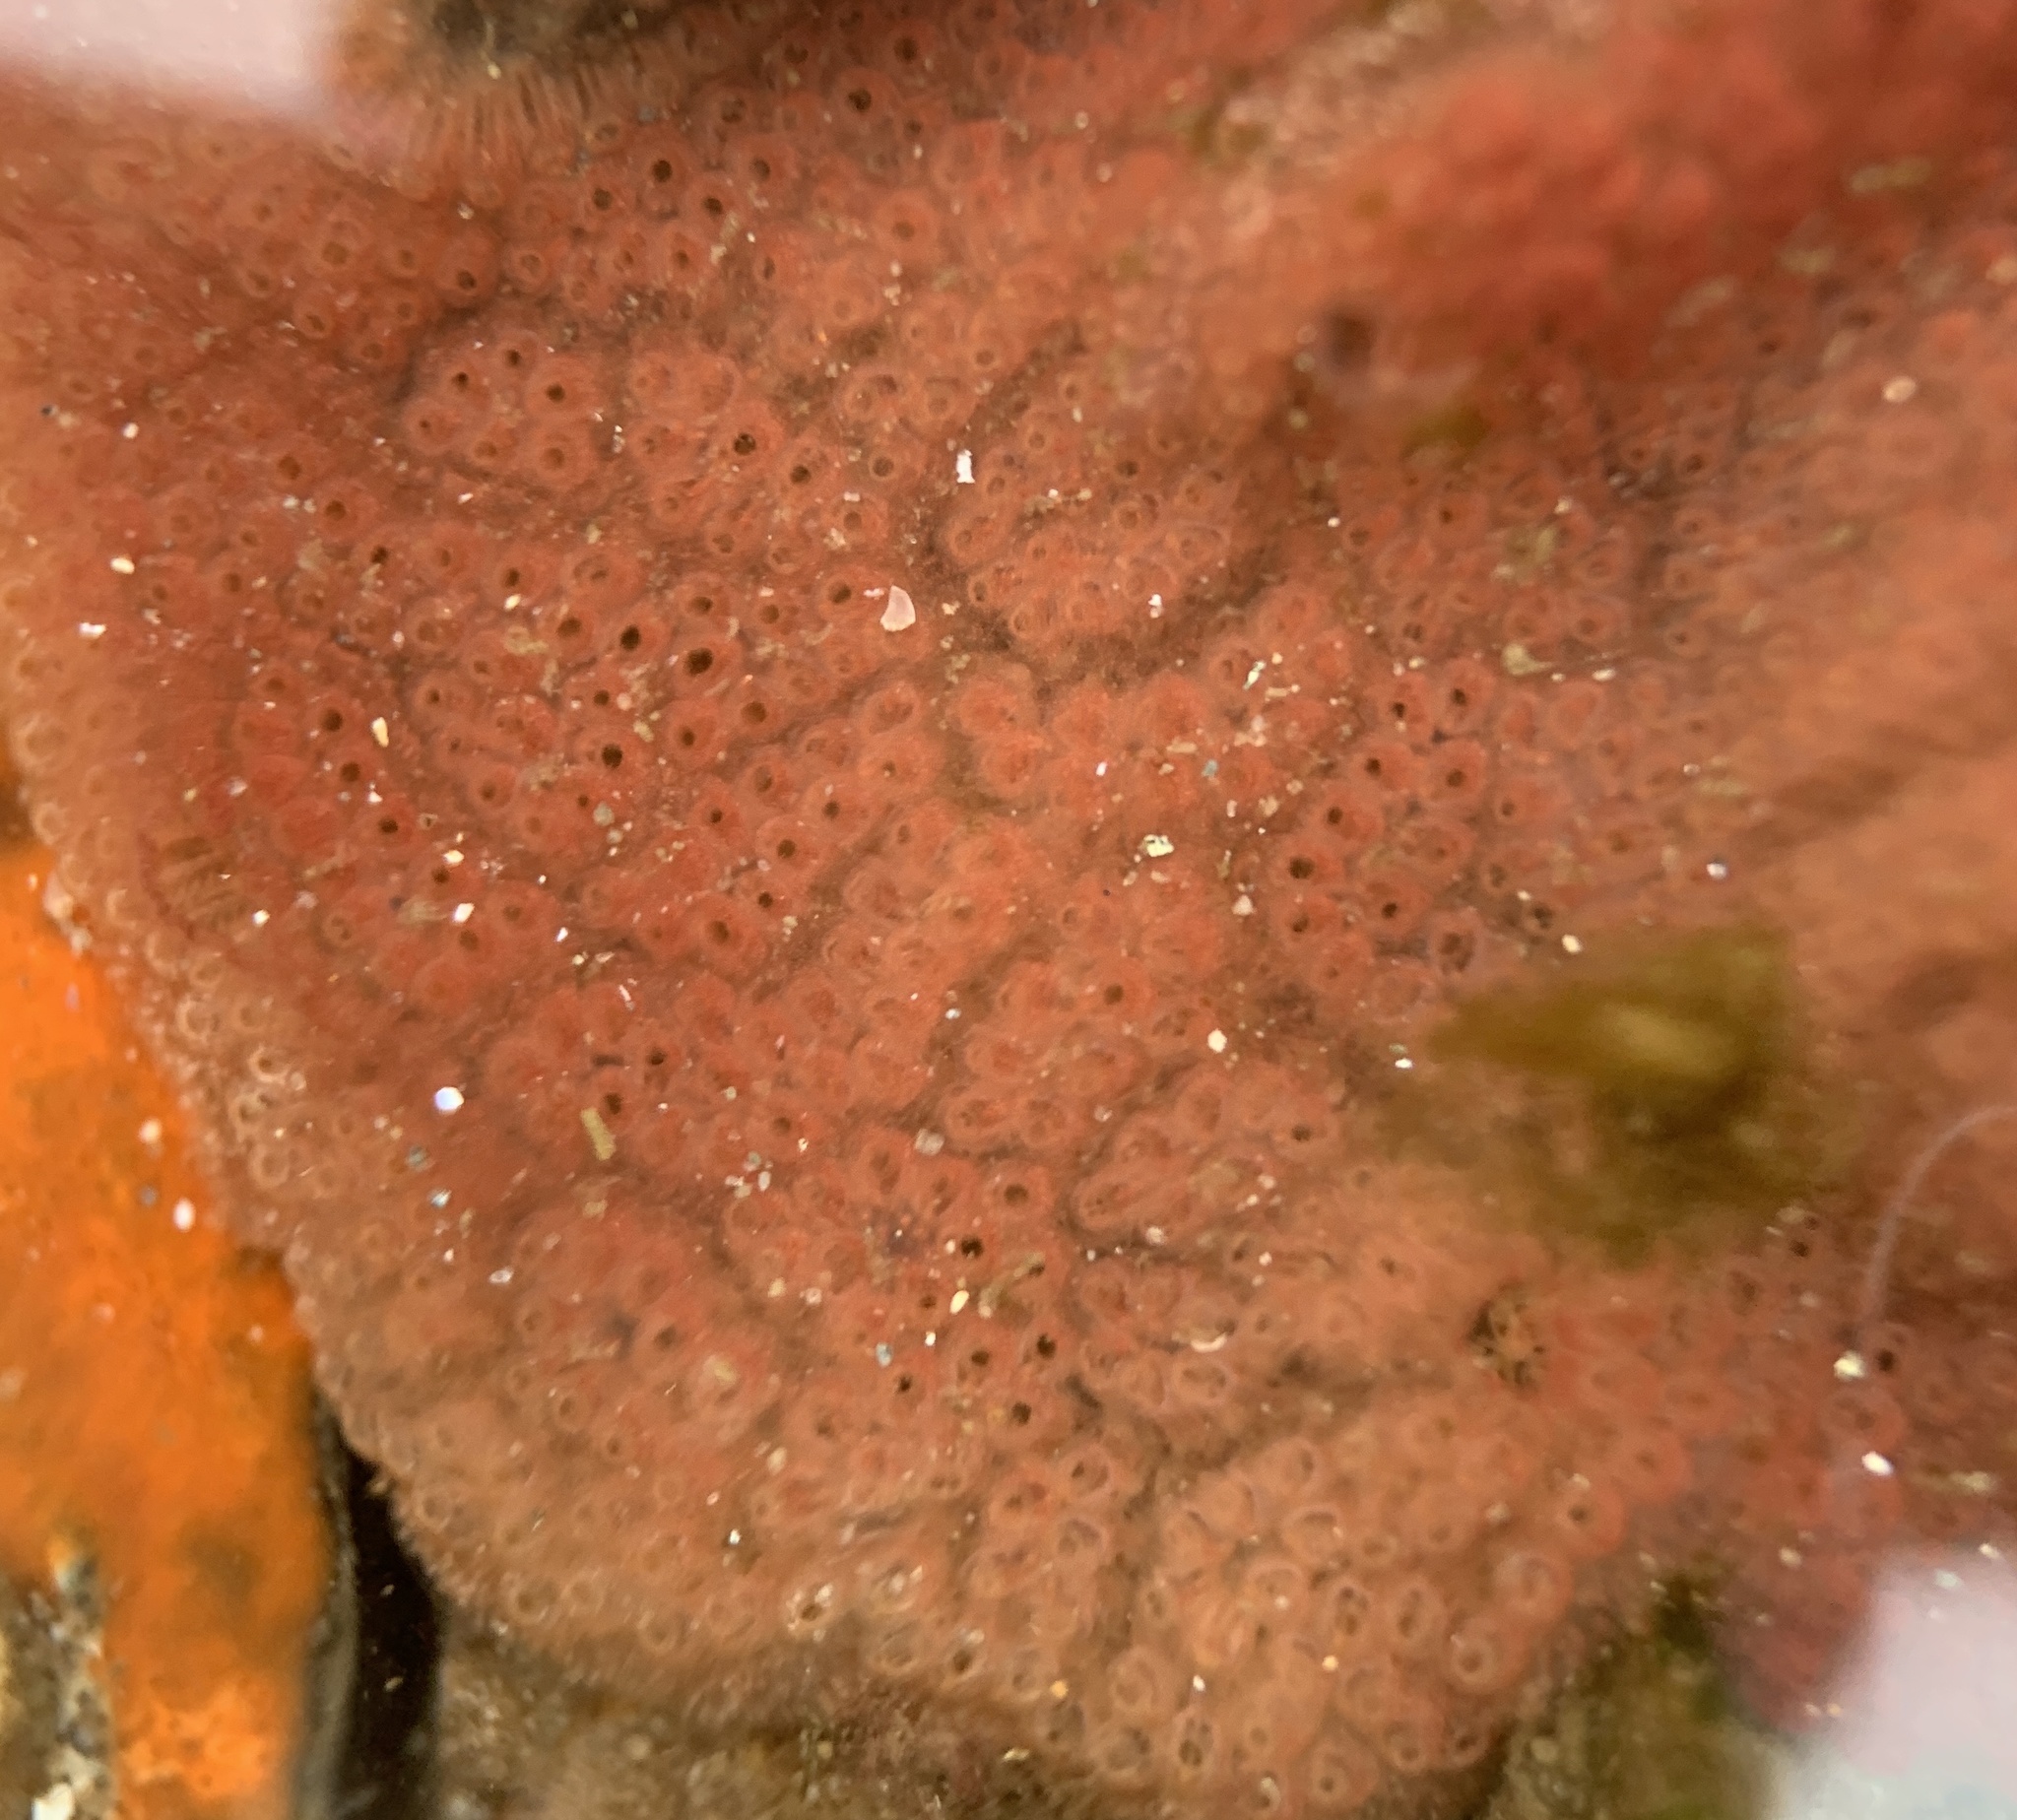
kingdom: Animalia
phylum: Chordata
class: Ascidiacea
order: Stolidobranchia
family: Styelidae
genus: Botrylloides
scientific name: Botrylloides violaceus
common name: Colonial sea squirt
